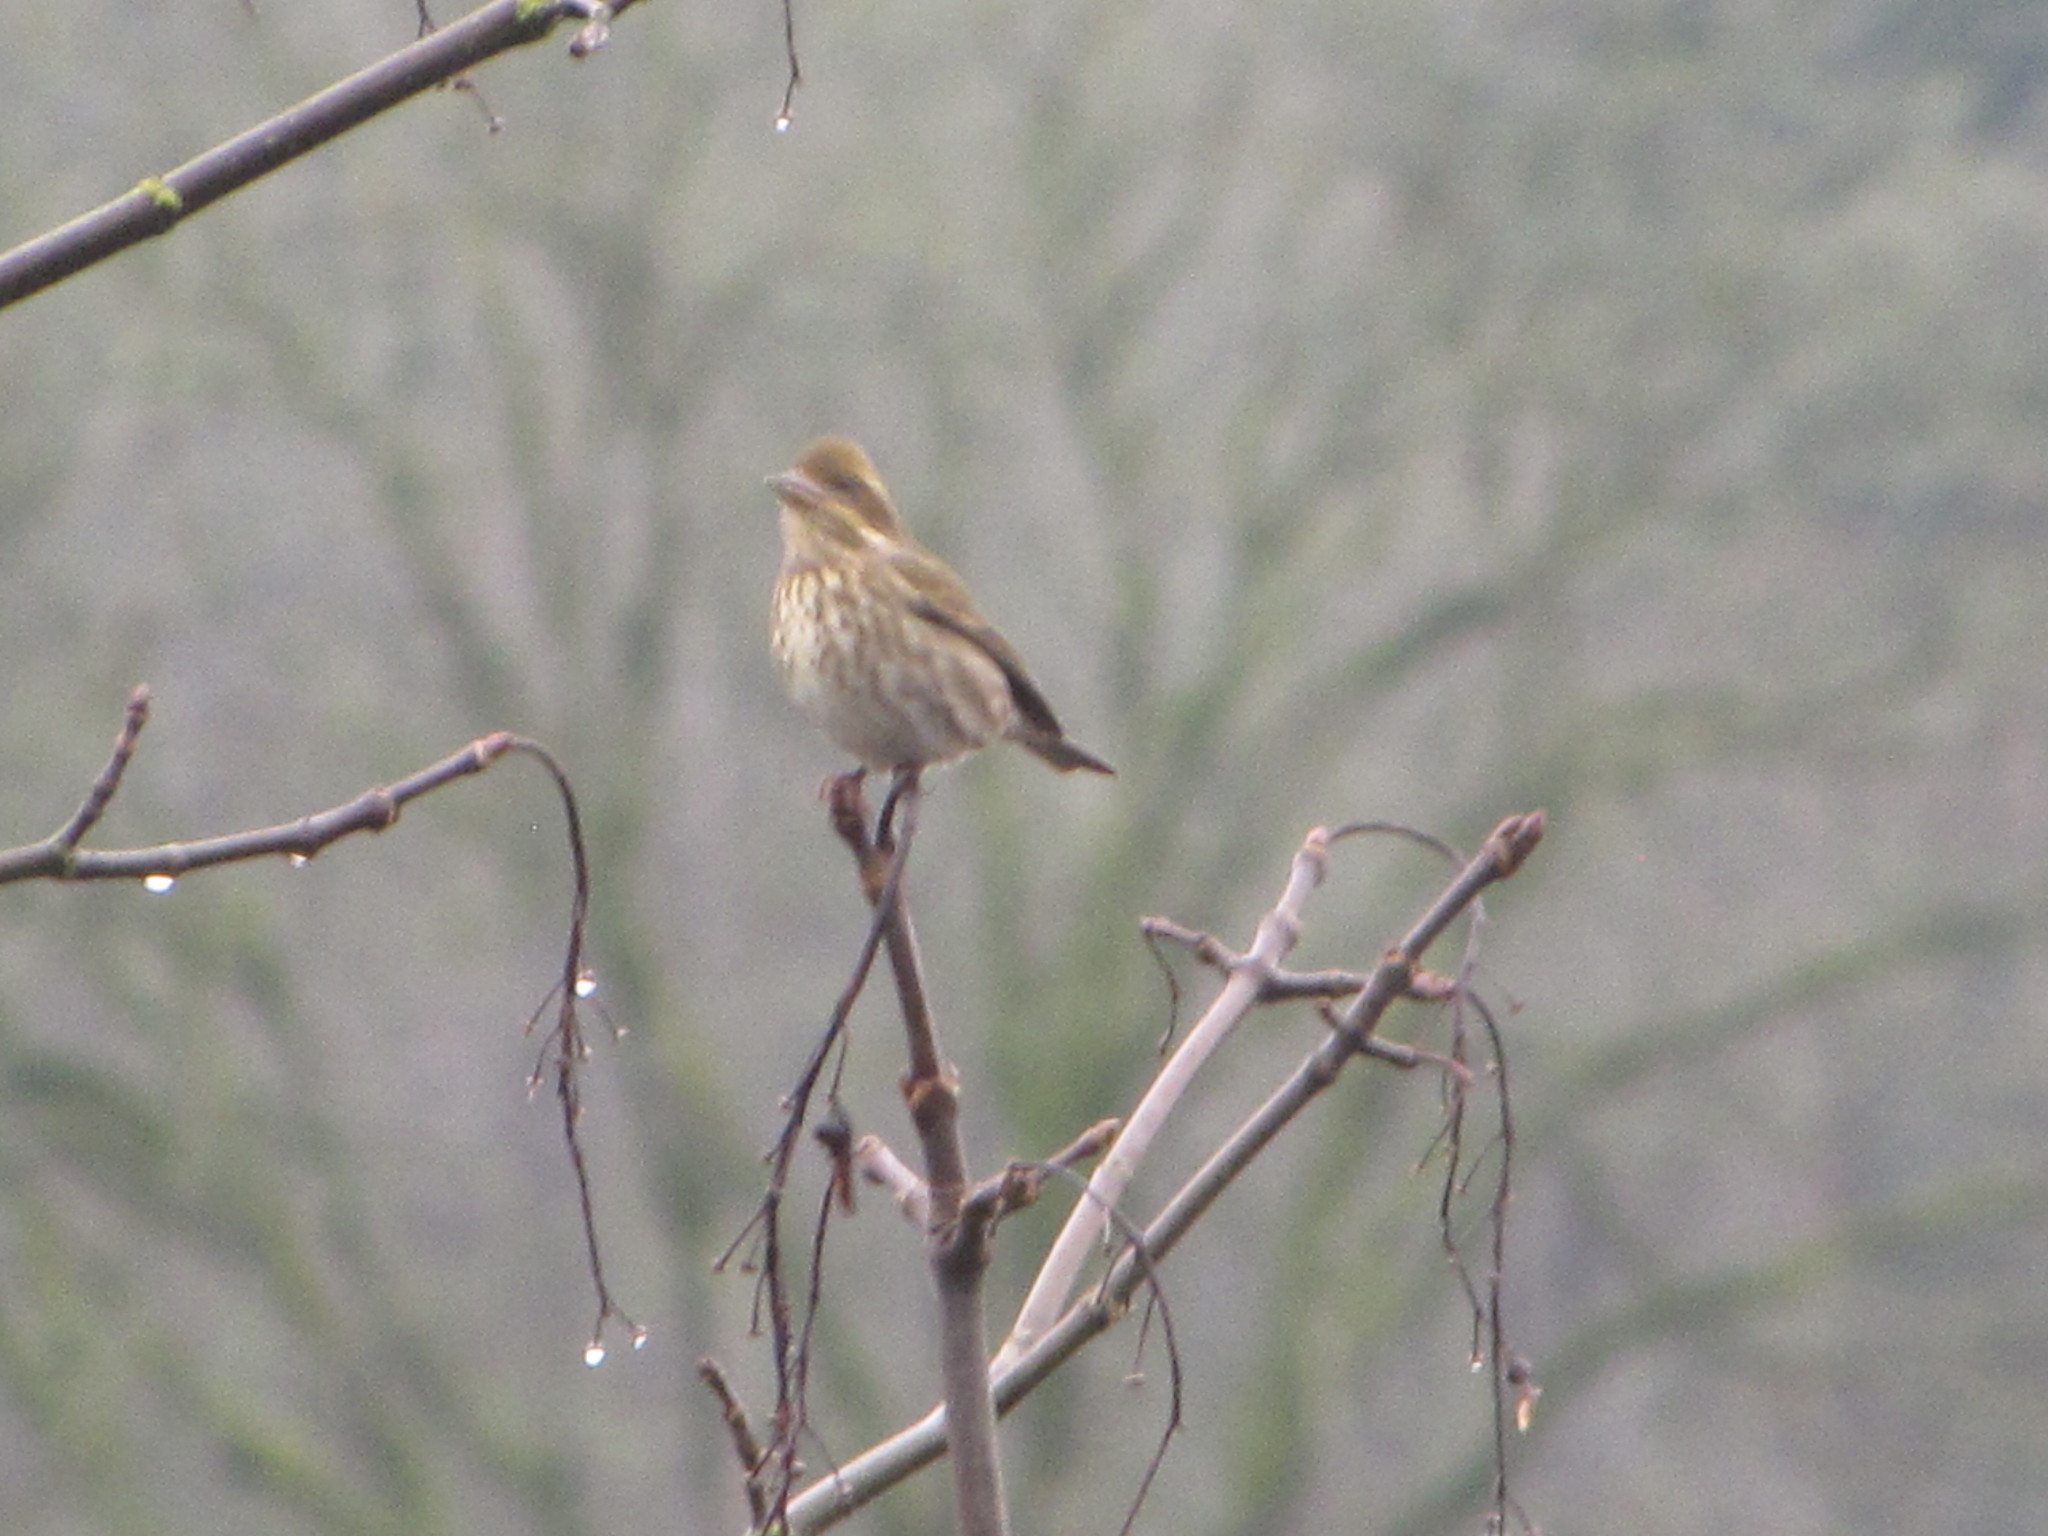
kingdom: Animalia
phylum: Chordata
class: Aves
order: Passeriformes
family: Fringillidae
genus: Haemorhous
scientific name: Haemorhous purpureus
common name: Purple finch
